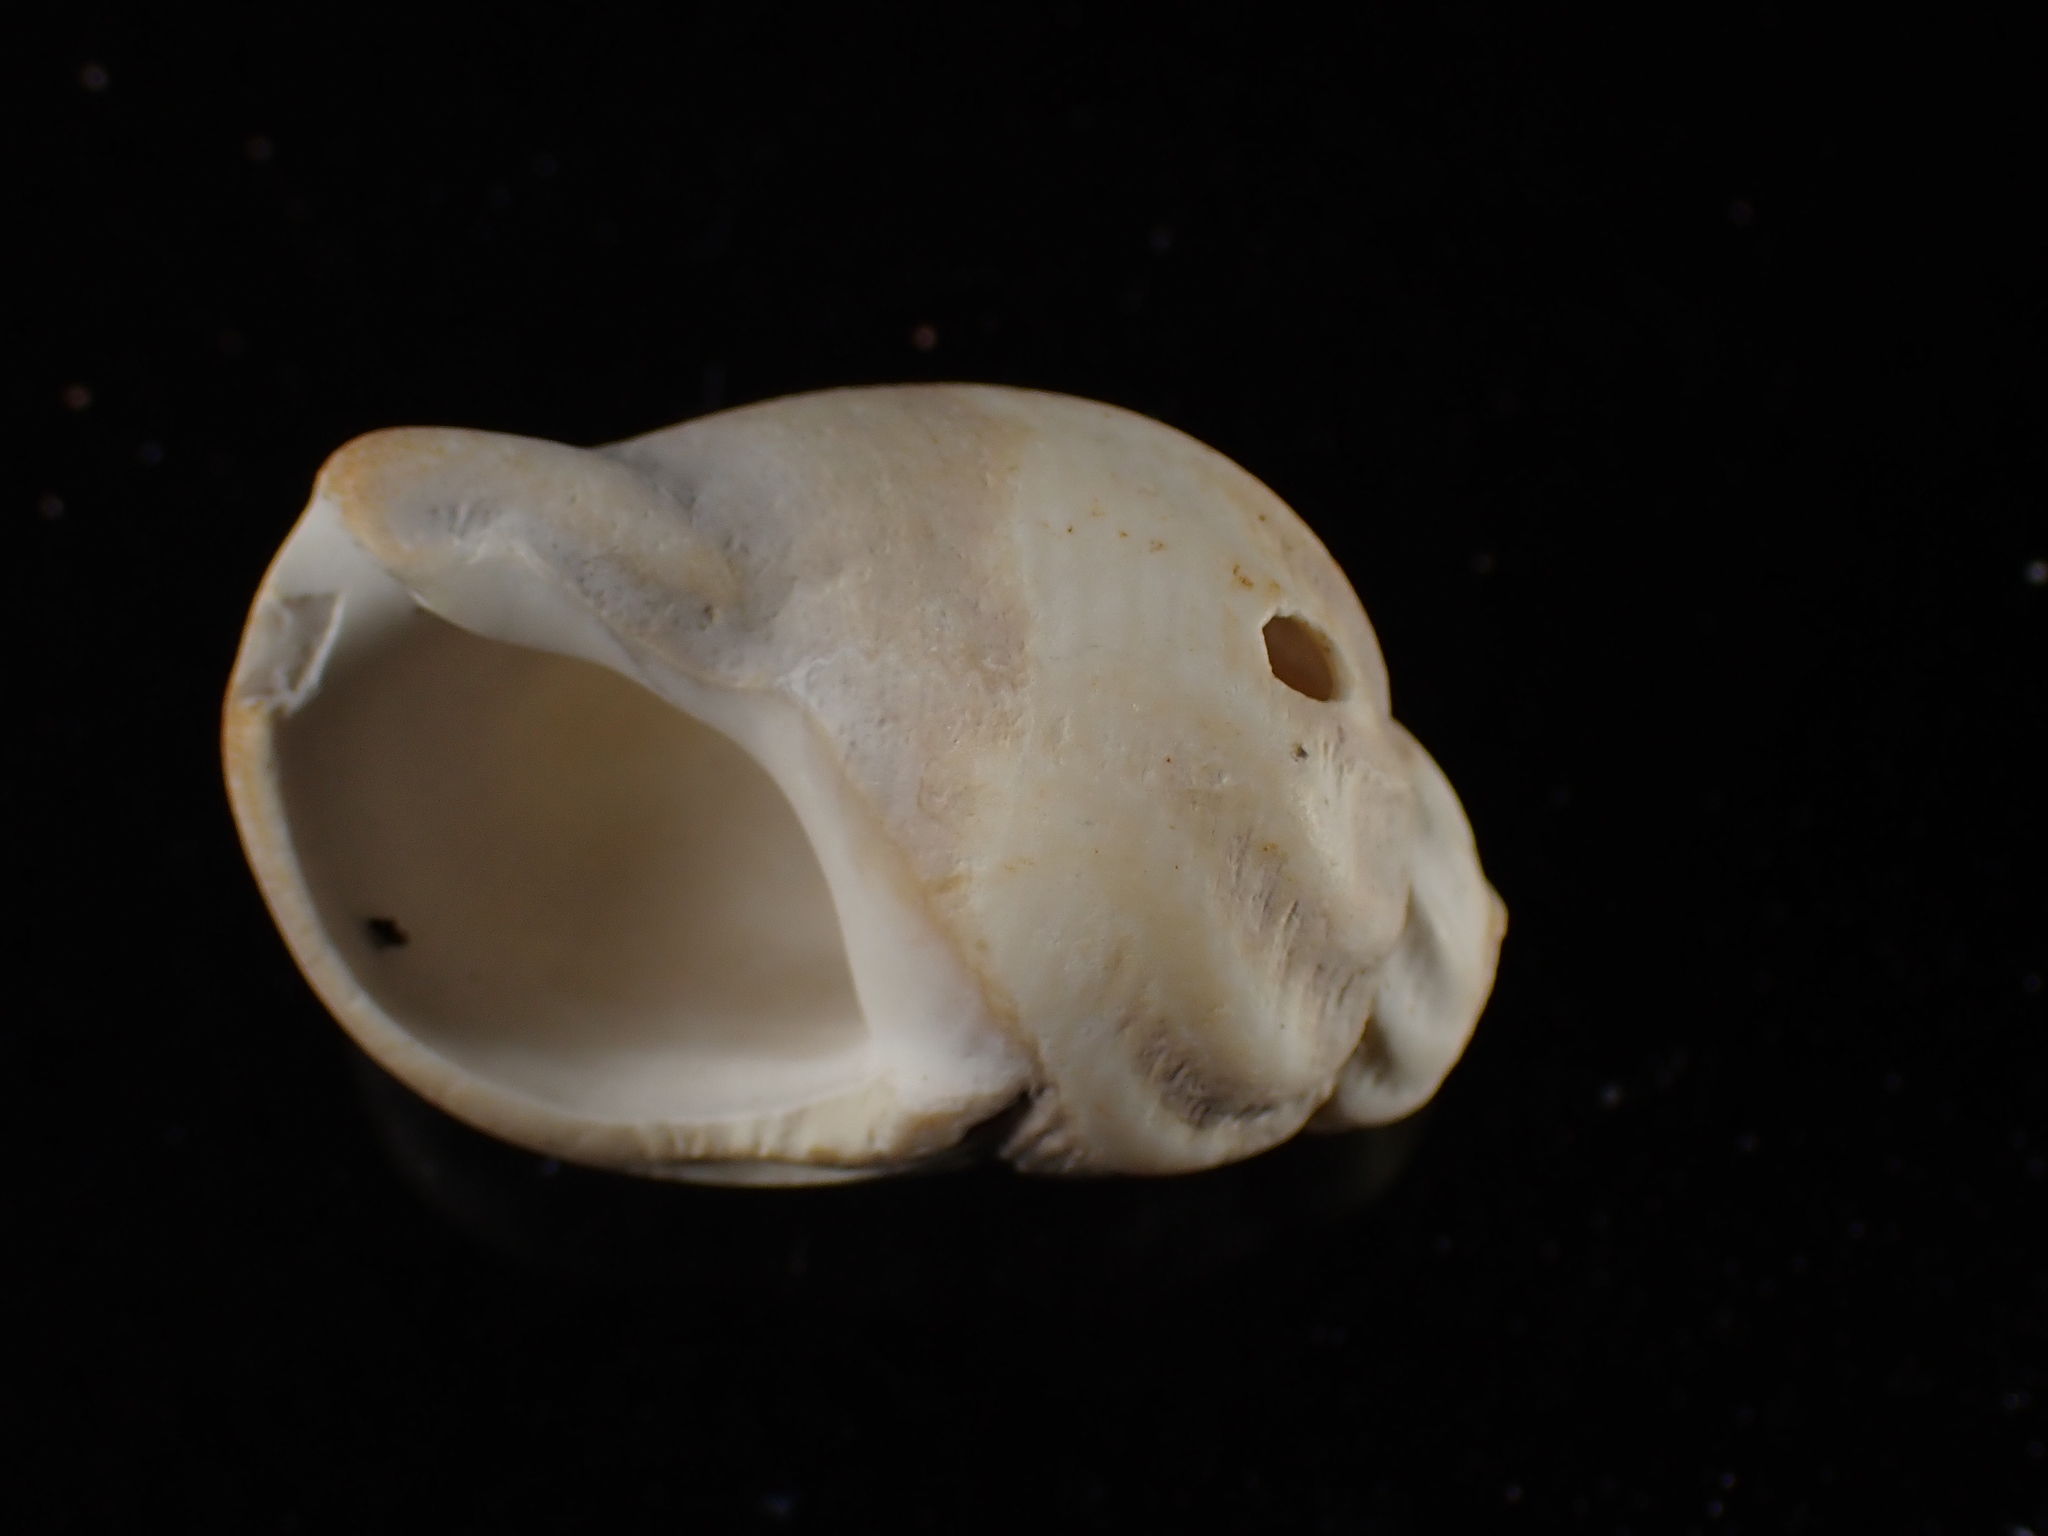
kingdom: Animalia
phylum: Mollusca
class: Gastropoda
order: Neogastropoda
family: Buccinidae
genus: Buccinum
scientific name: Buccinum undatum
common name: Common whelk
